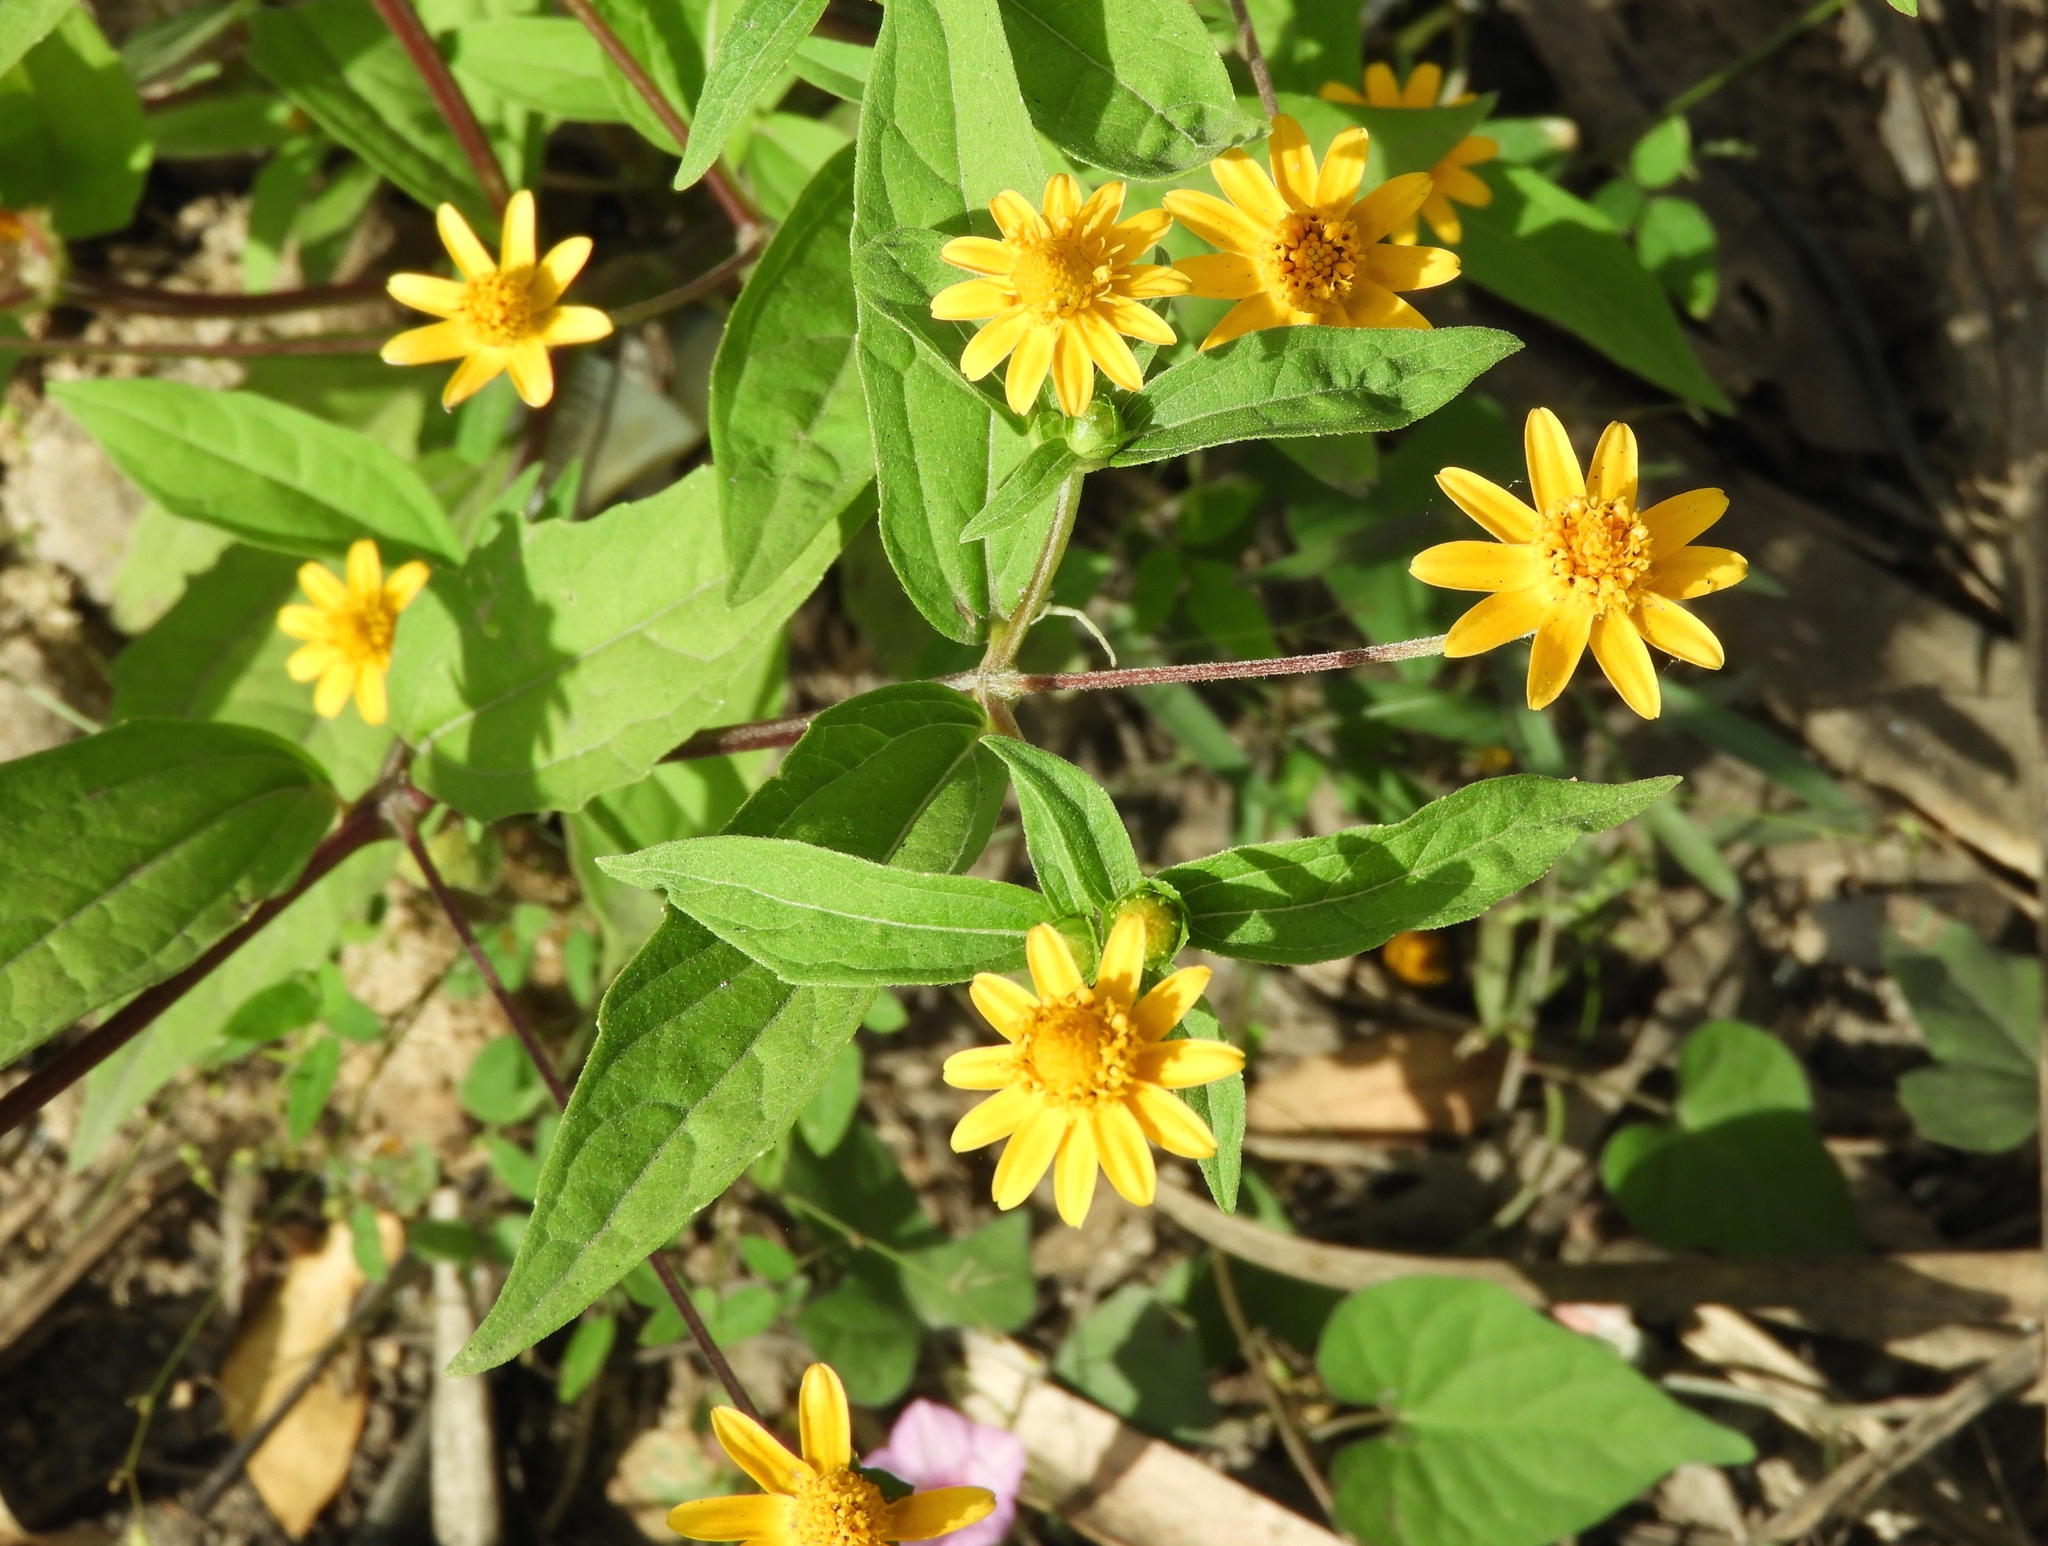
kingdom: Plantae
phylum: Tracheophyta
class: Magnoliopsida
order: Asterales
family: Asteraceae
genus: Melampodium
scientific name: Melampodium divaricatum
